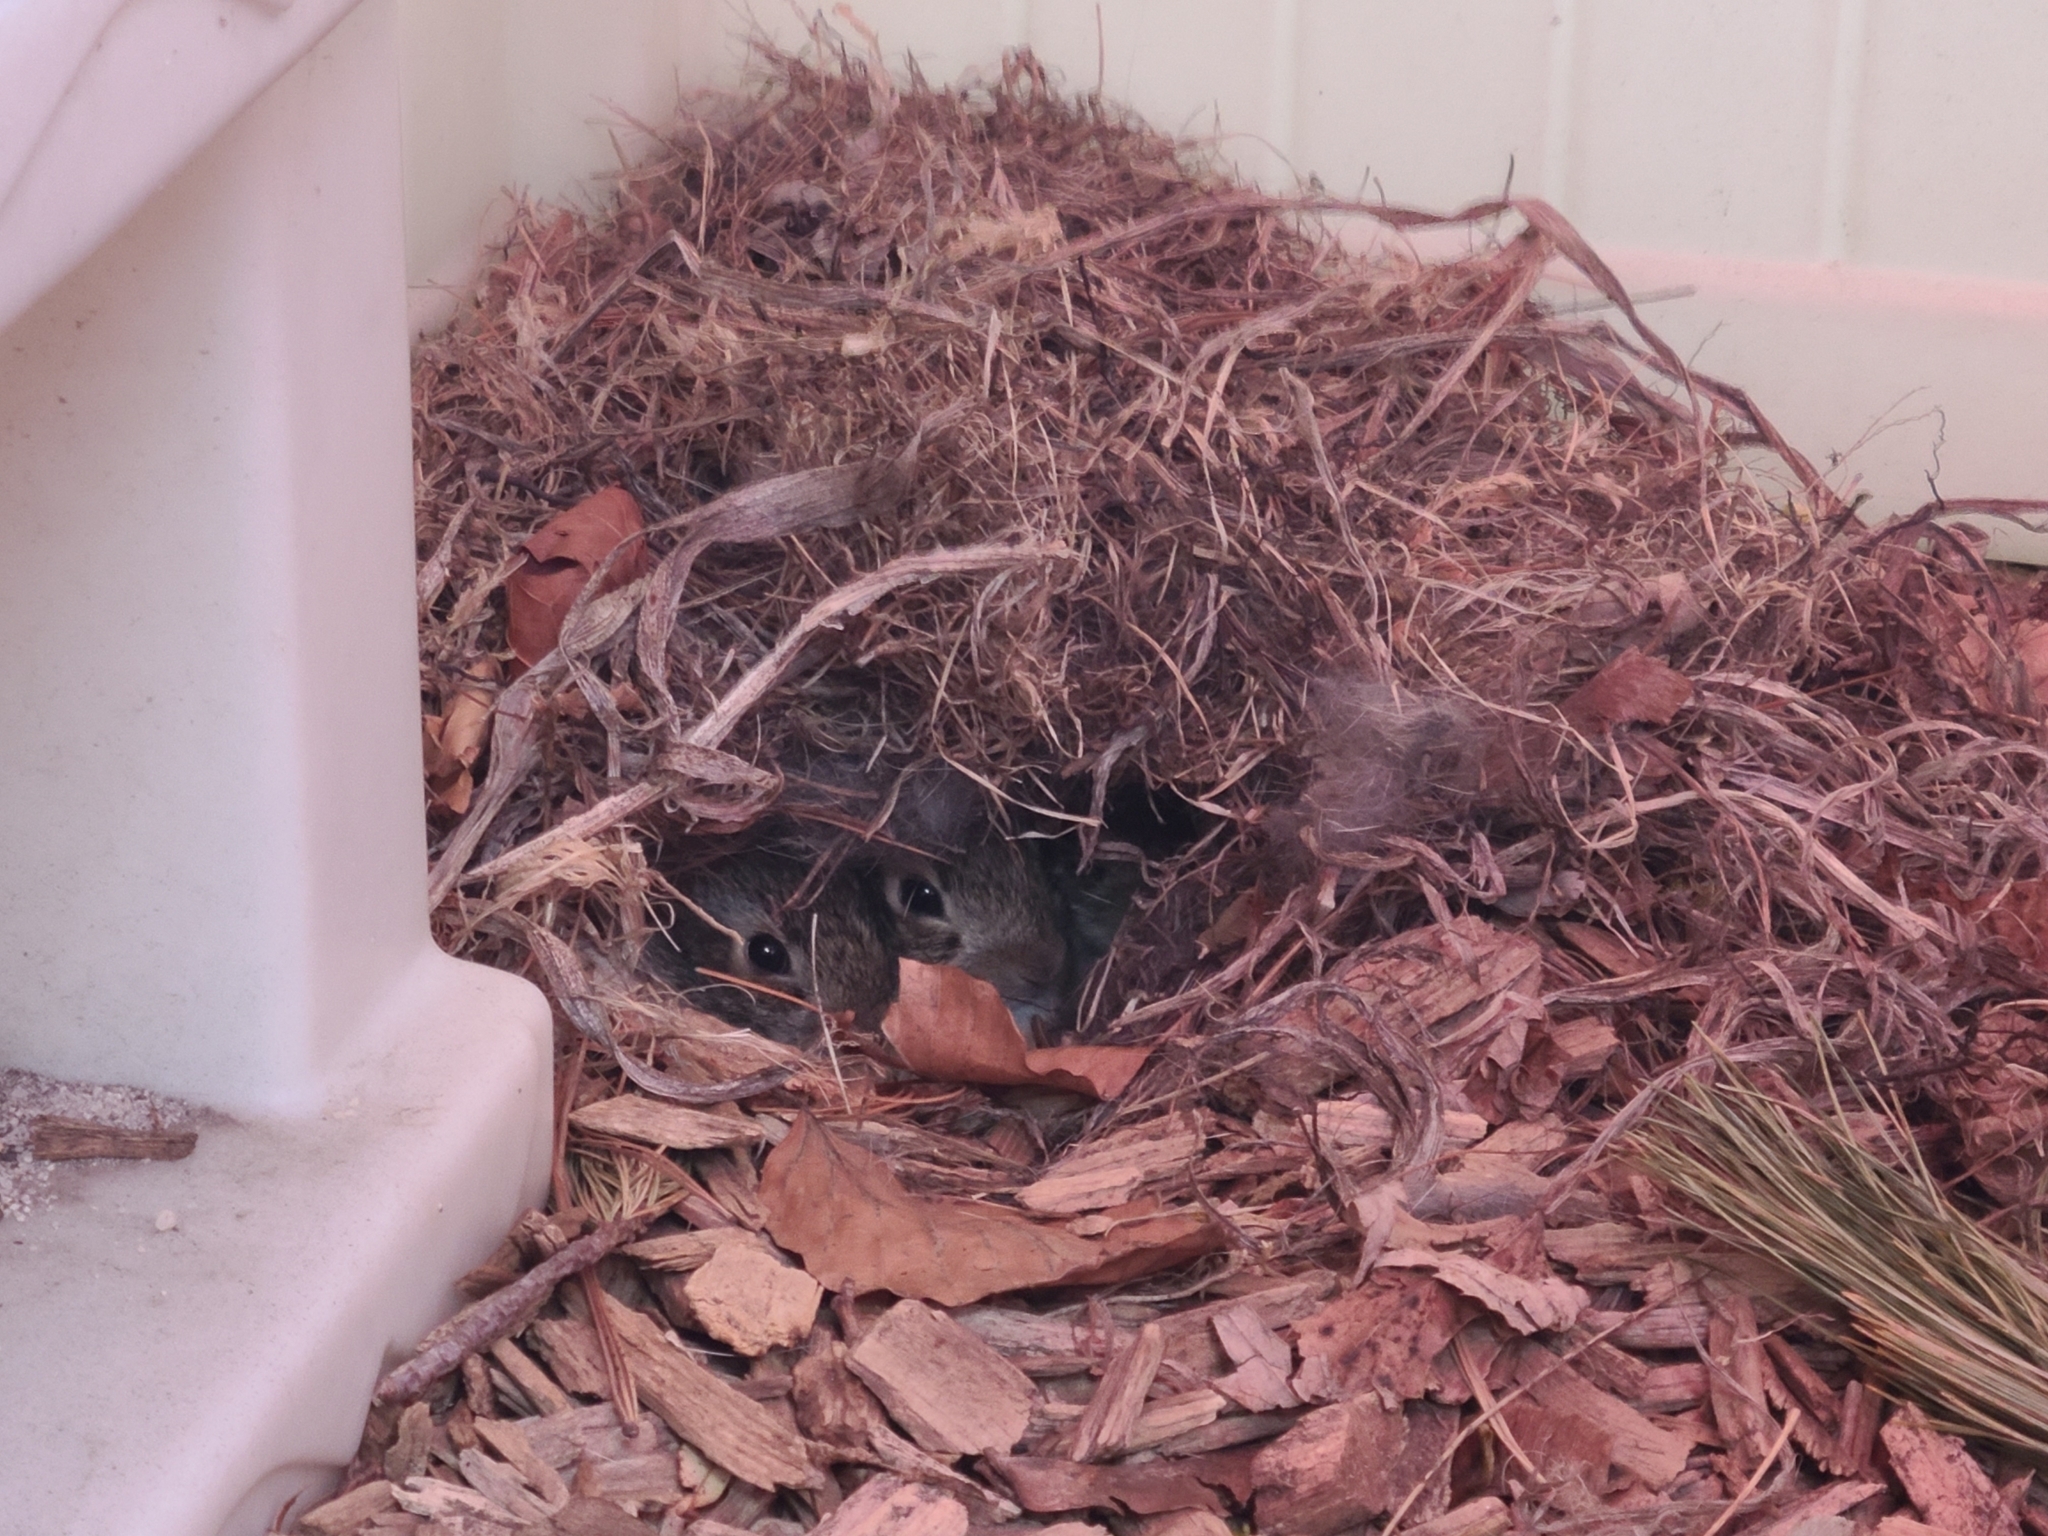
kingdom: Animalia
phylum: Chordata
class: Mammalia
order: Lagomorpha
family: Leporidae
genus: Sylvilagus
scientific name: Sylvilagus floridanus
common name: Eastern cottontail
